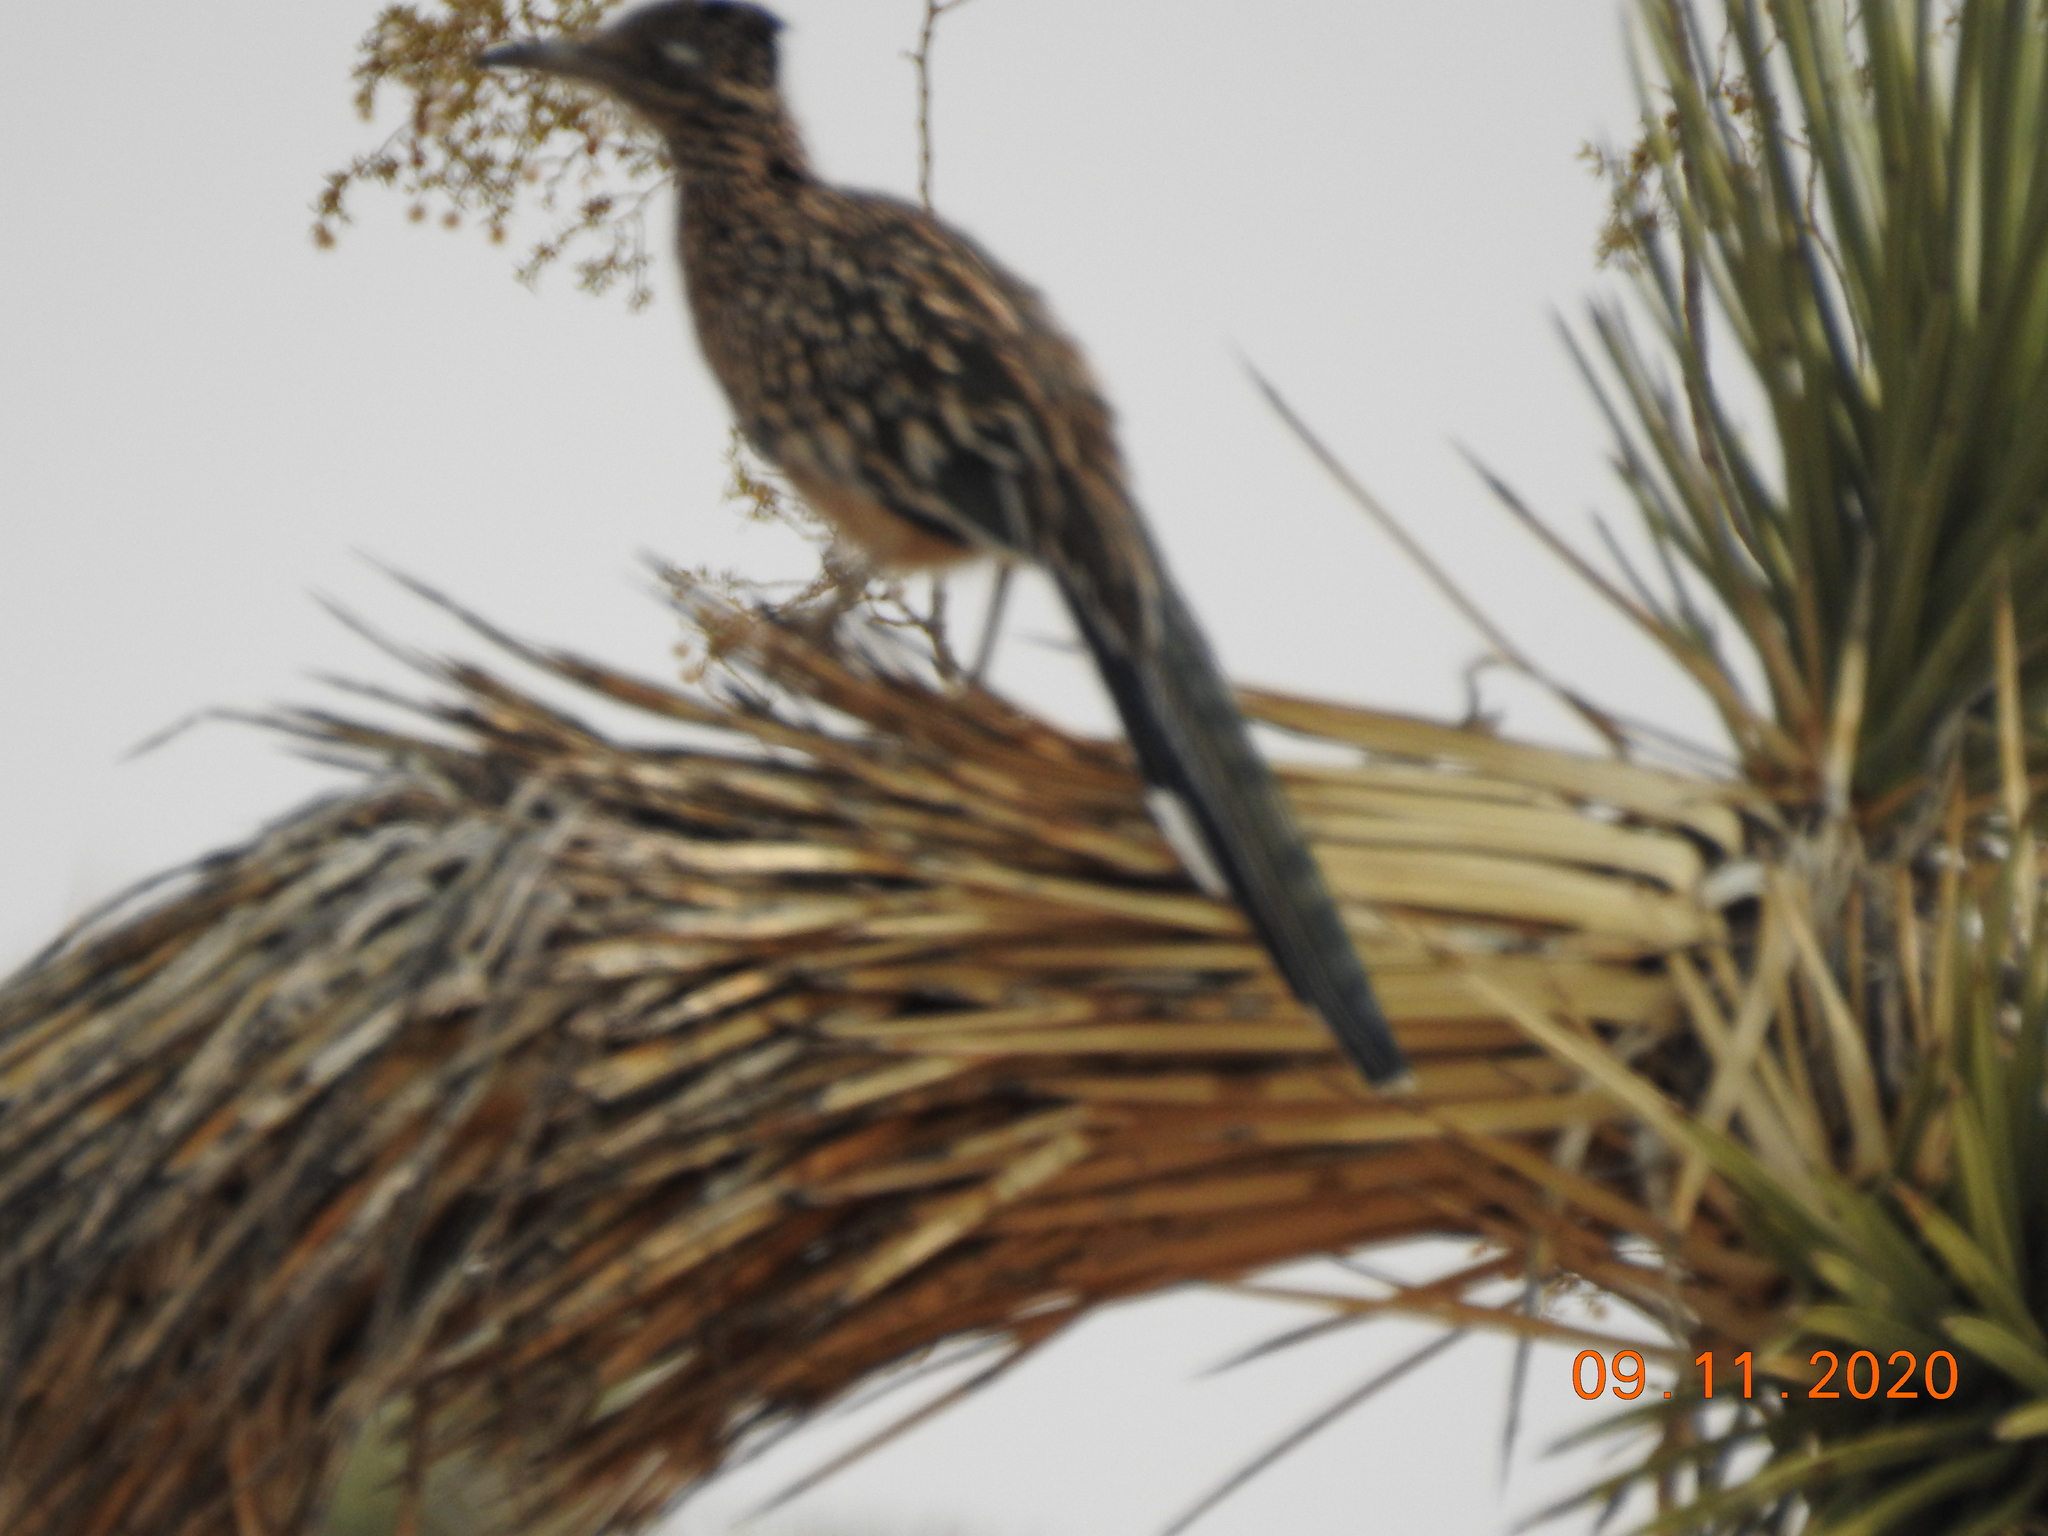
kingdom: Animalia
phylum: Chordata
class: Aves
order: Cuculiformes
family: Cuculidae
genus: Geococcyx
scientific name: Geococcyx californianus
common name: Greater roadrunner
